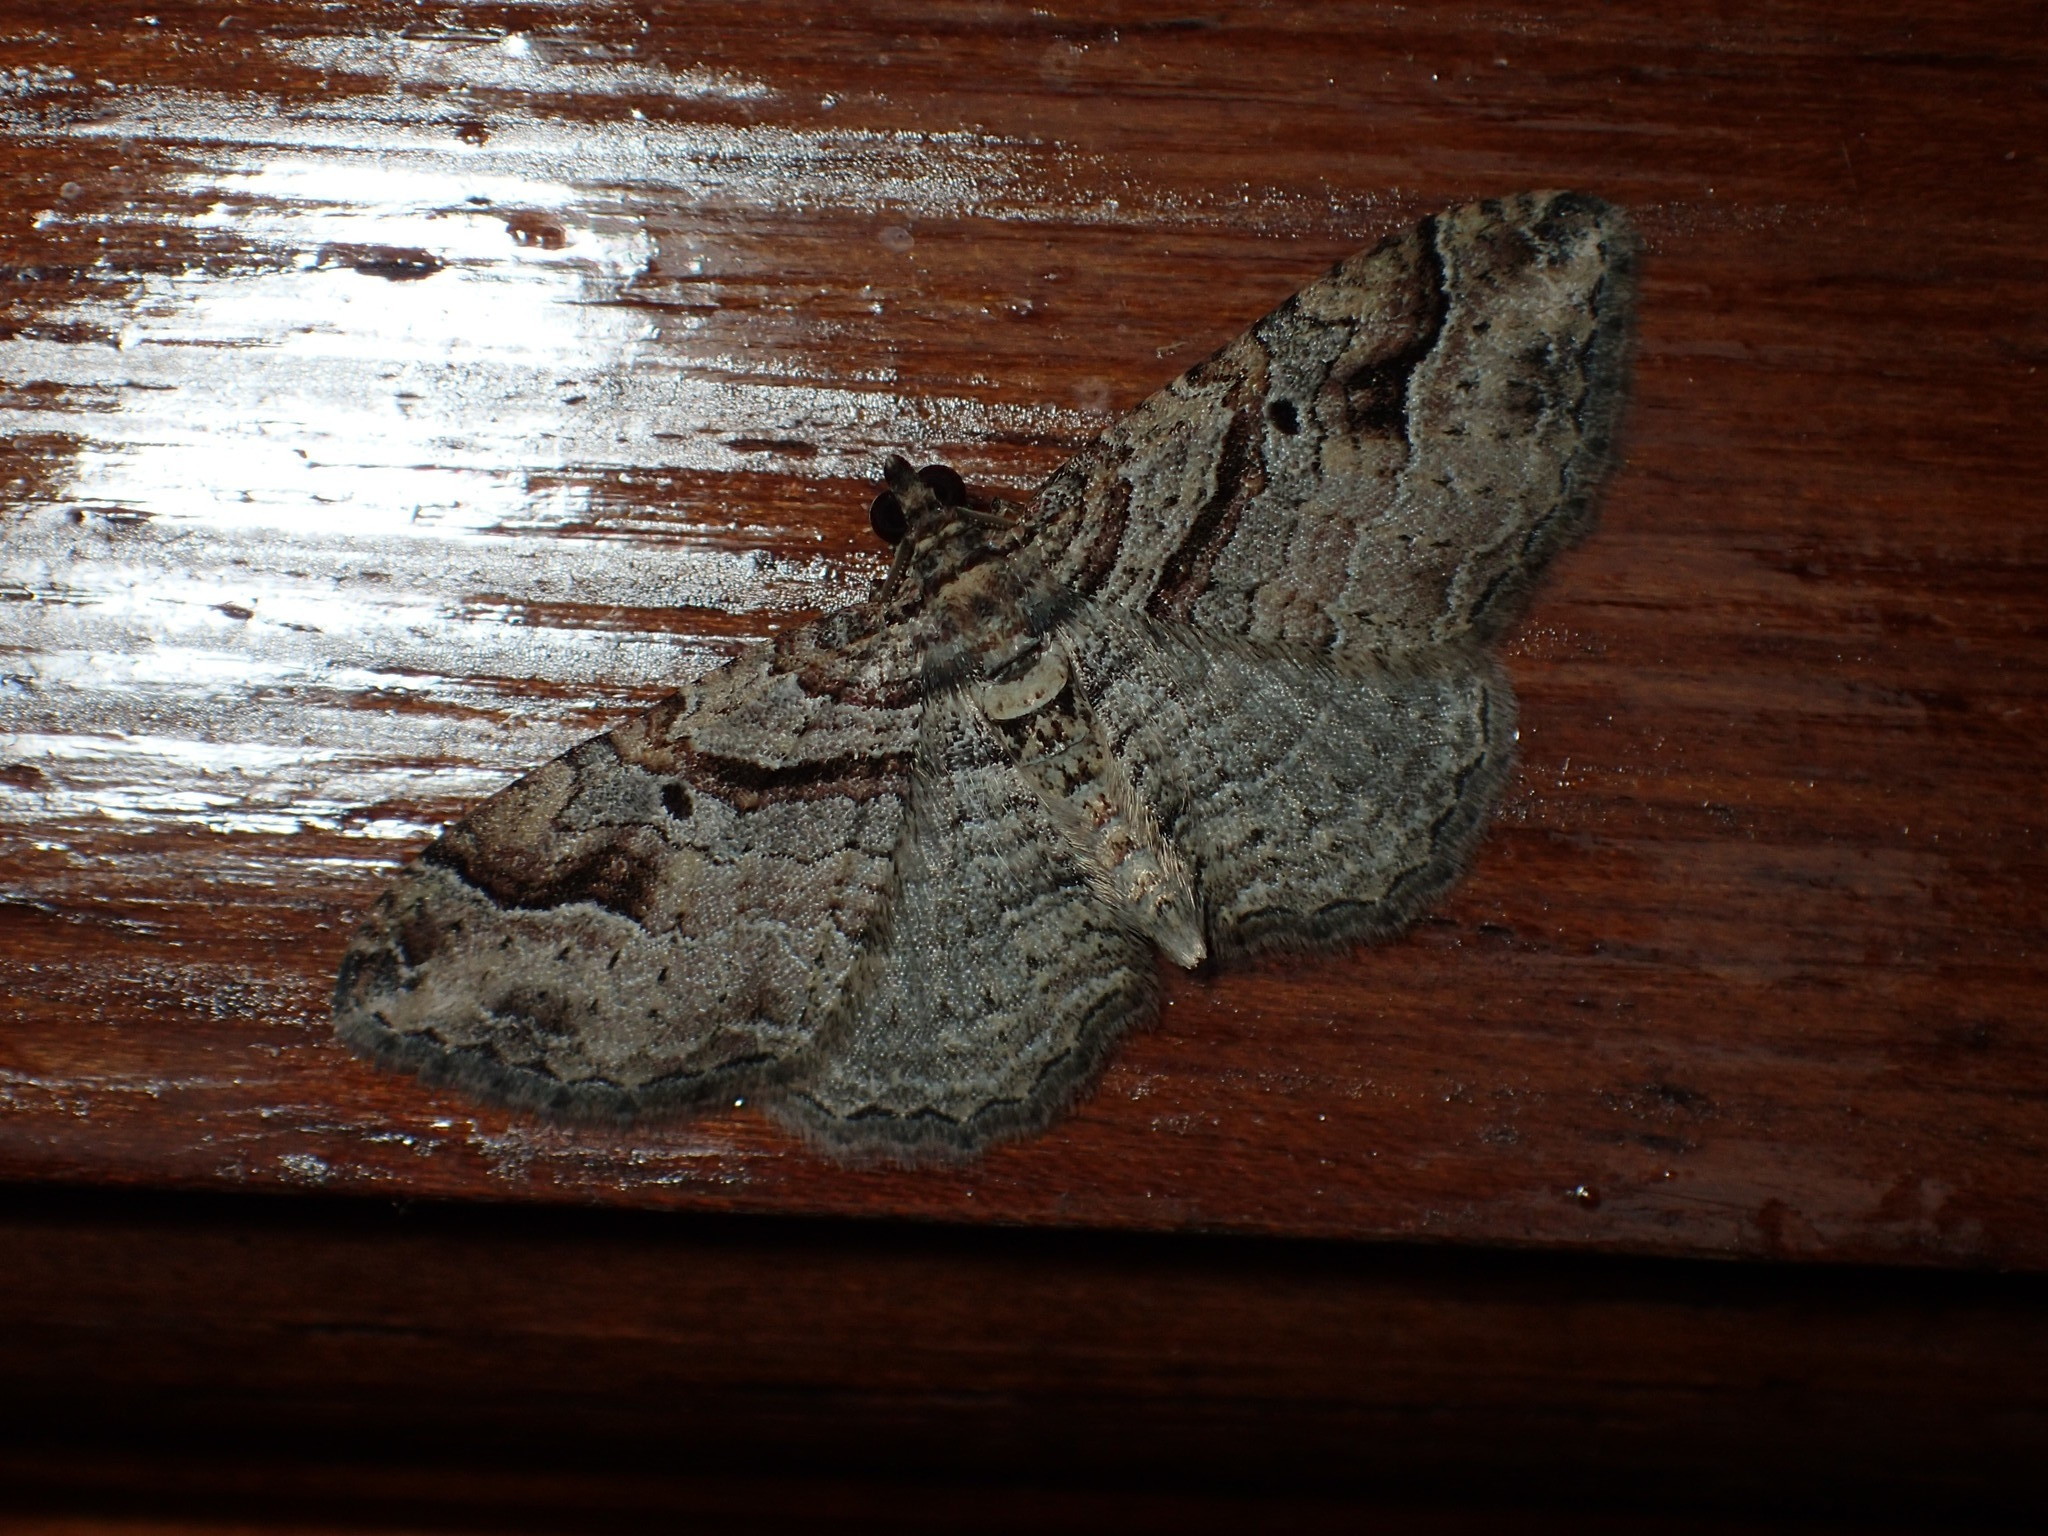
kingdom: Animalia
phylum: Arthropoda
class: Insecta
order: Lepidoptera
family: Geometridae
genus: Costaconvexa
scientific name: Costaconvexa centrostrigaria
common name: Bent-line carpet
